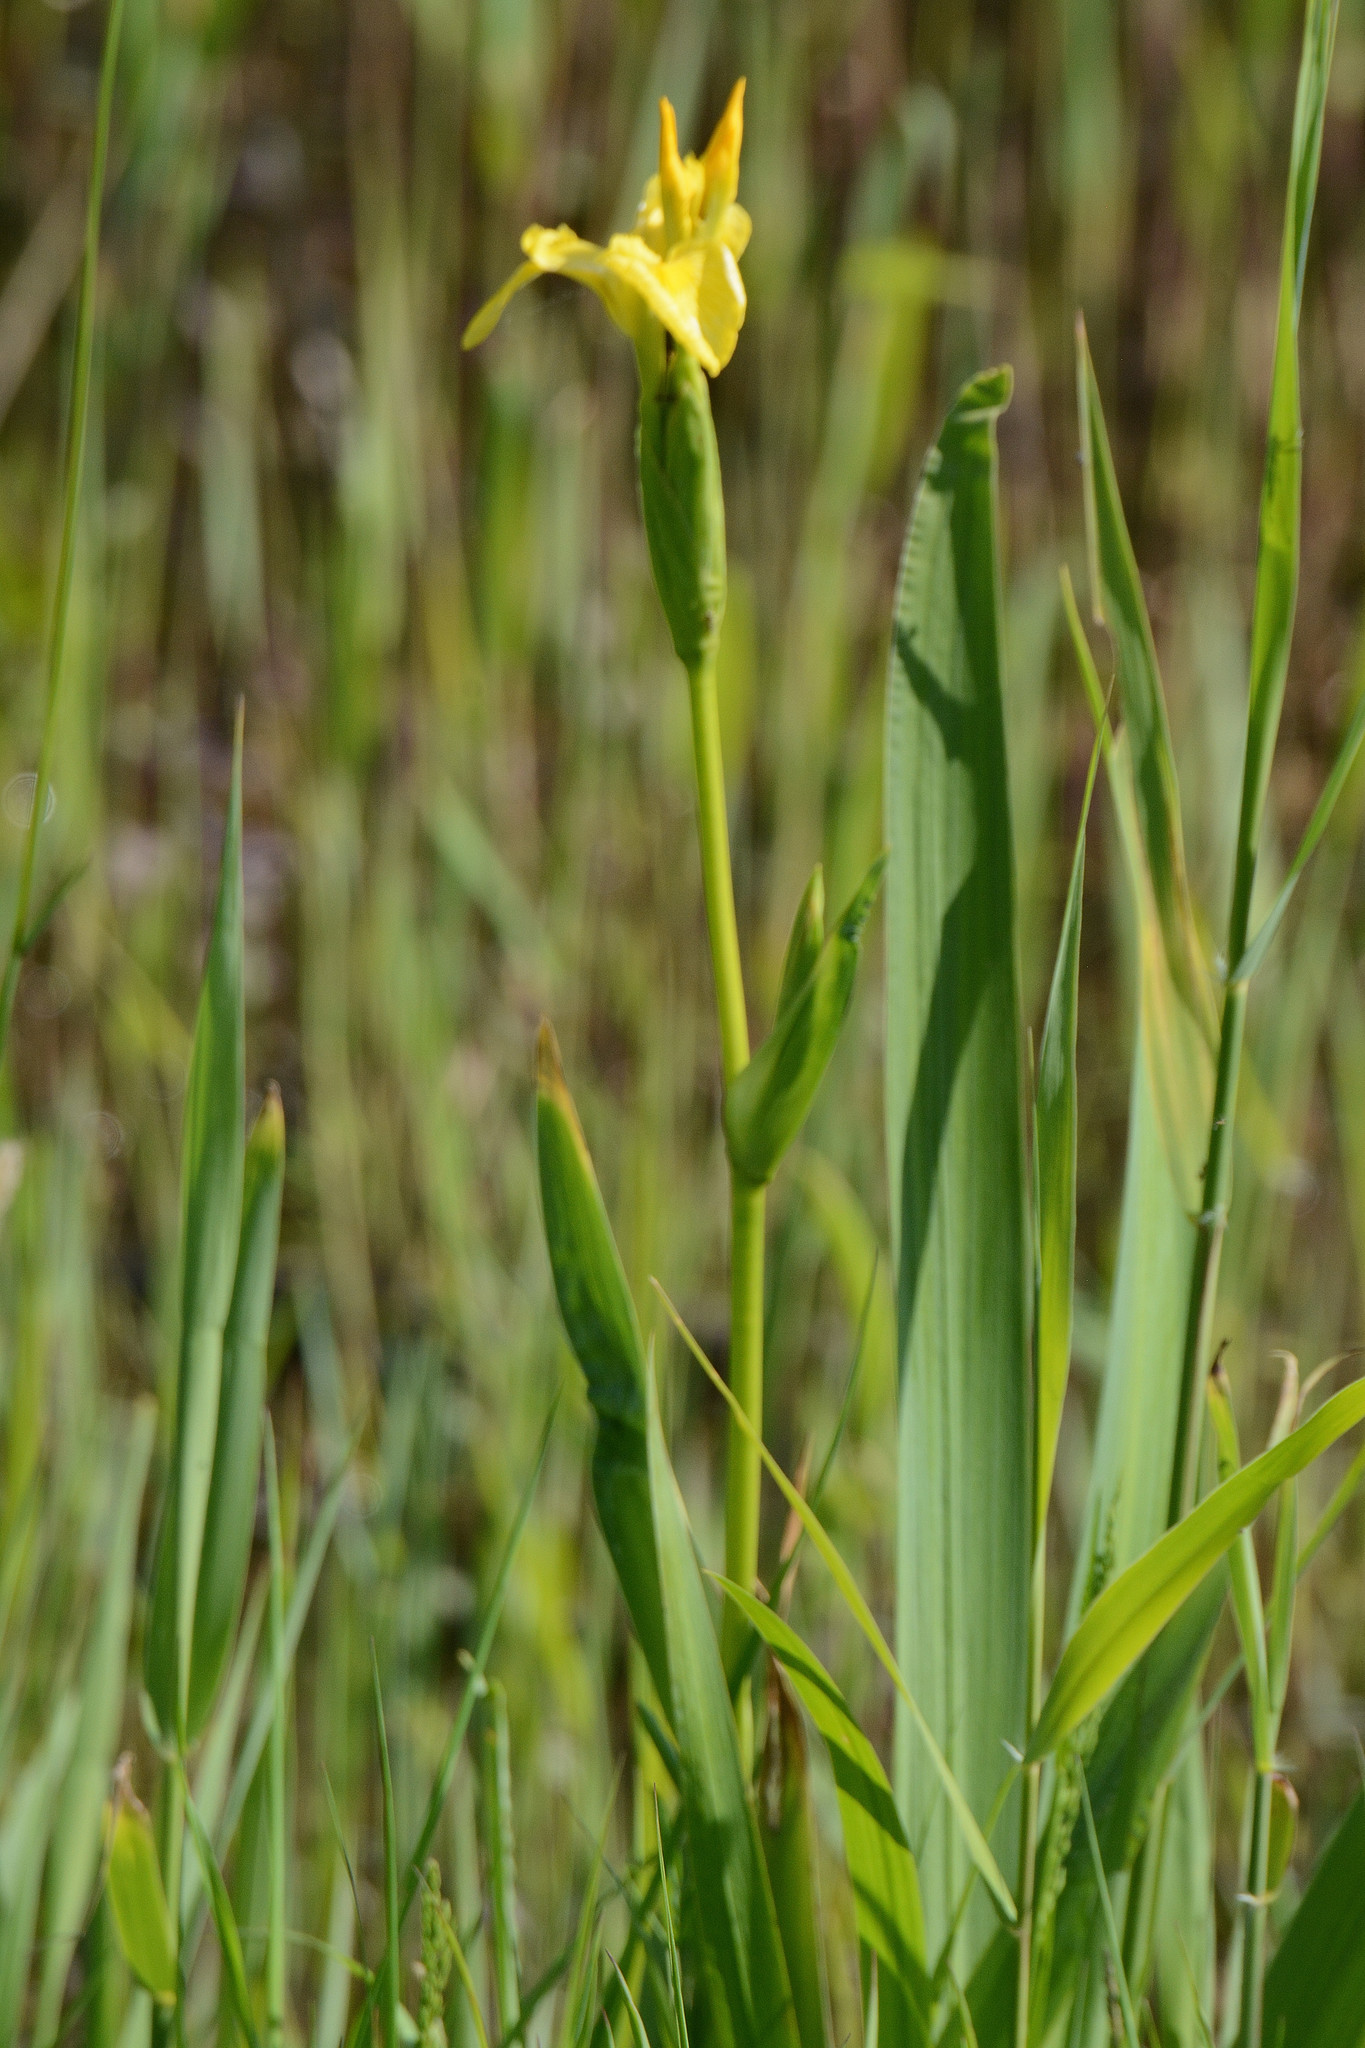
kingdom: Plantae
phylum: Tracheophyta
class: Liliopsida
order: Asparagales
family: Iridaceae
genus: Iris
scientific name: Iris pseudacorus
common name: Yellow flag
